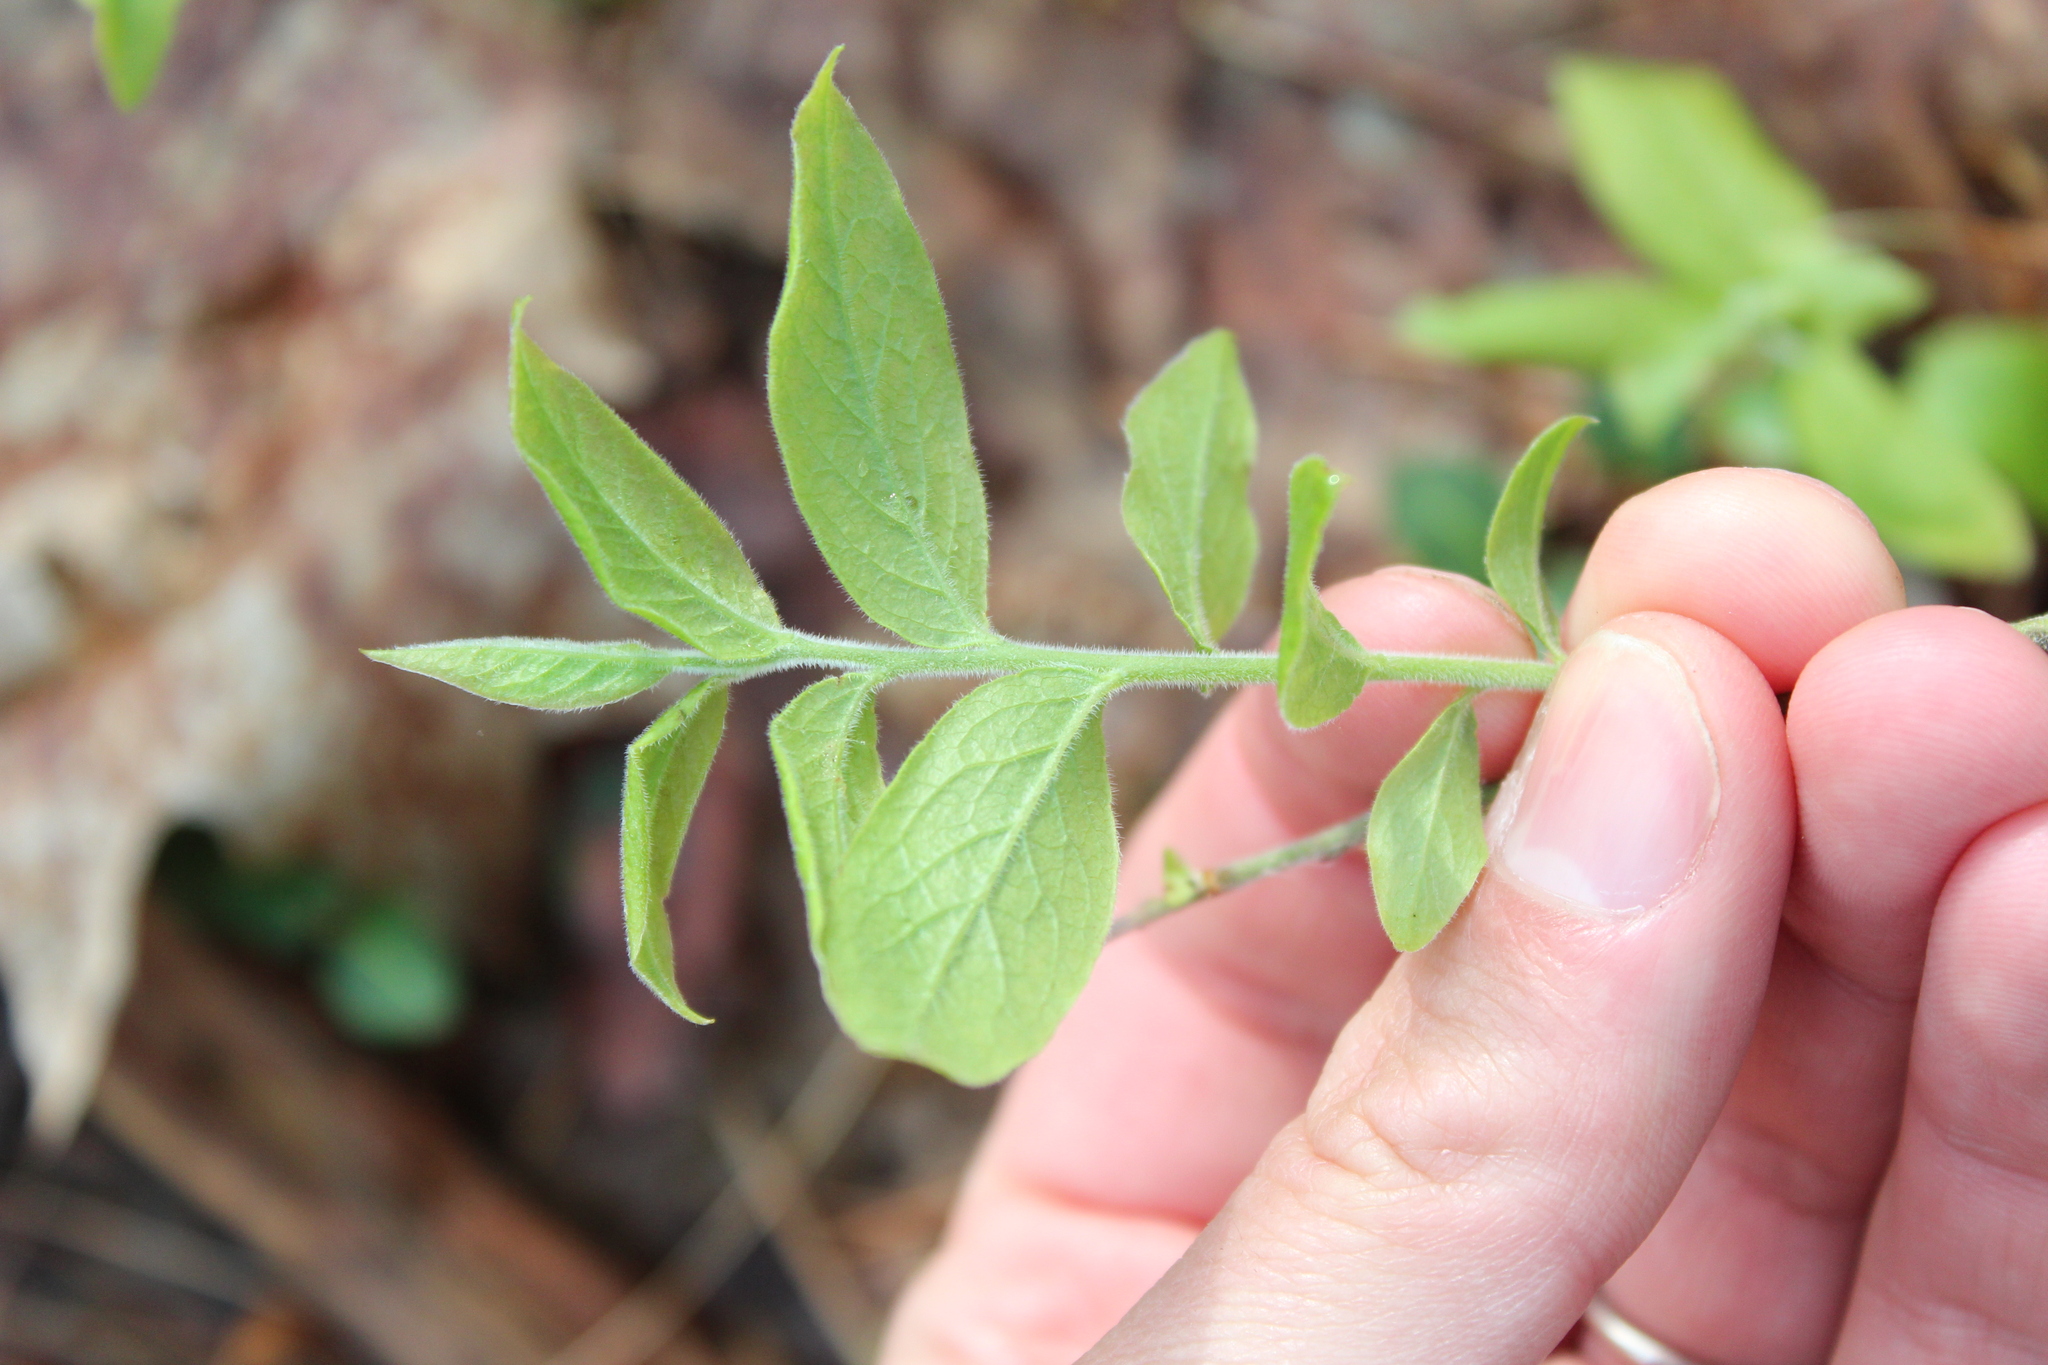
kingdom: Plantae
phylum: Tracheophyta
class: Magnoliopsida
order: Ericales
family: Ericaceae
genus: Vaccinium
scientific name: Vaccinium myrtilloides
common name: Canada blueberry
